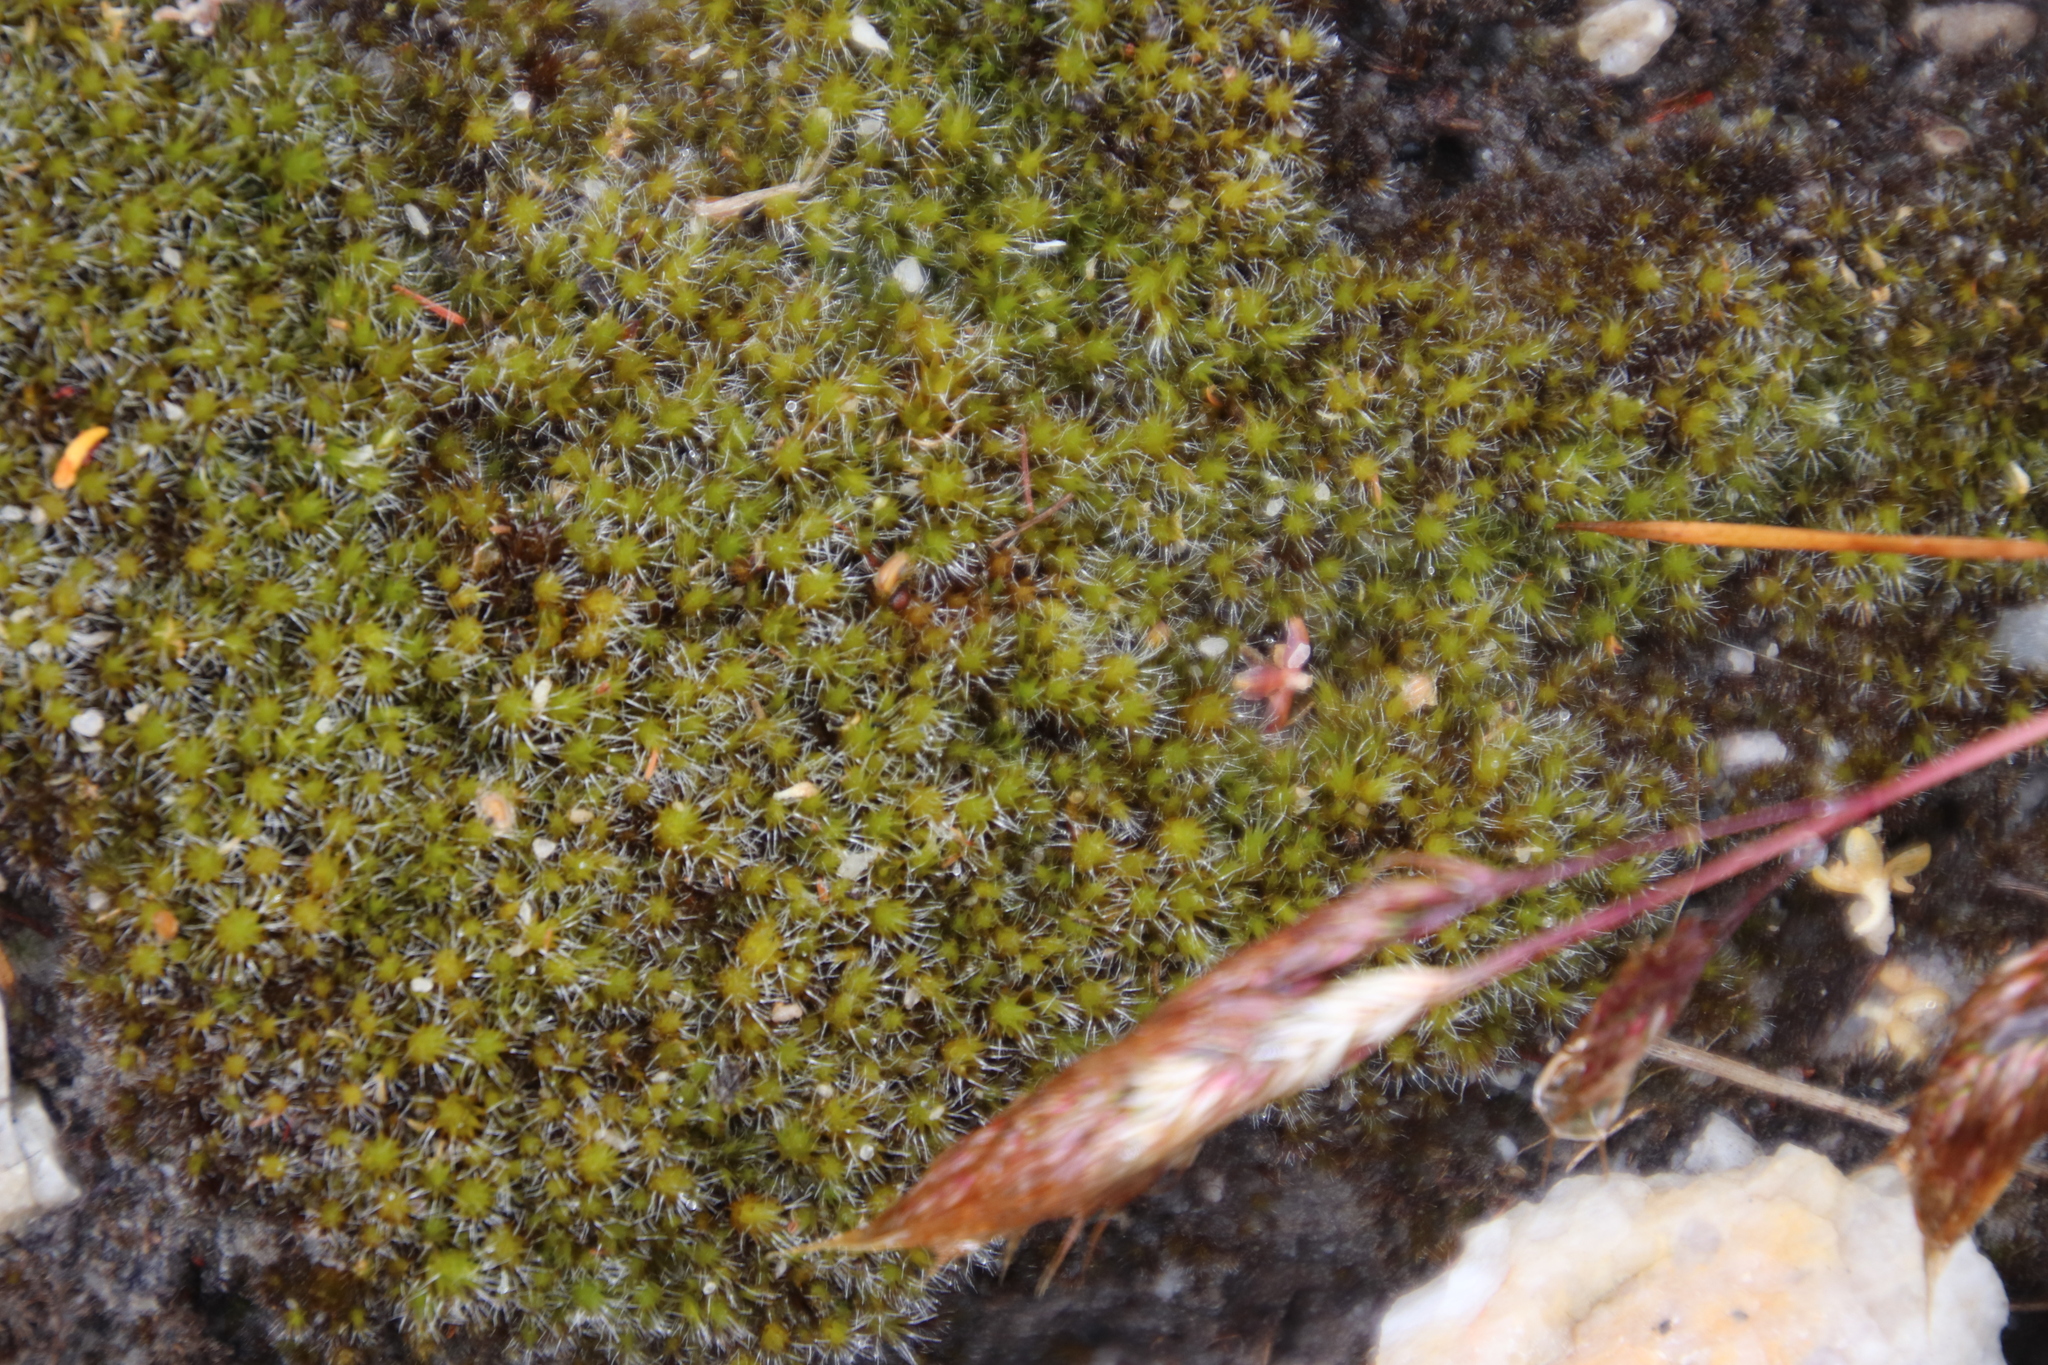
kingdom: Plantae
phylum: Bryophyta
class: Bryopsida
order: Dicranales
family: Leucobryaceae
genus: Campylopus
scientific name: Campylopus pilifer
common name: Campylopus moss
